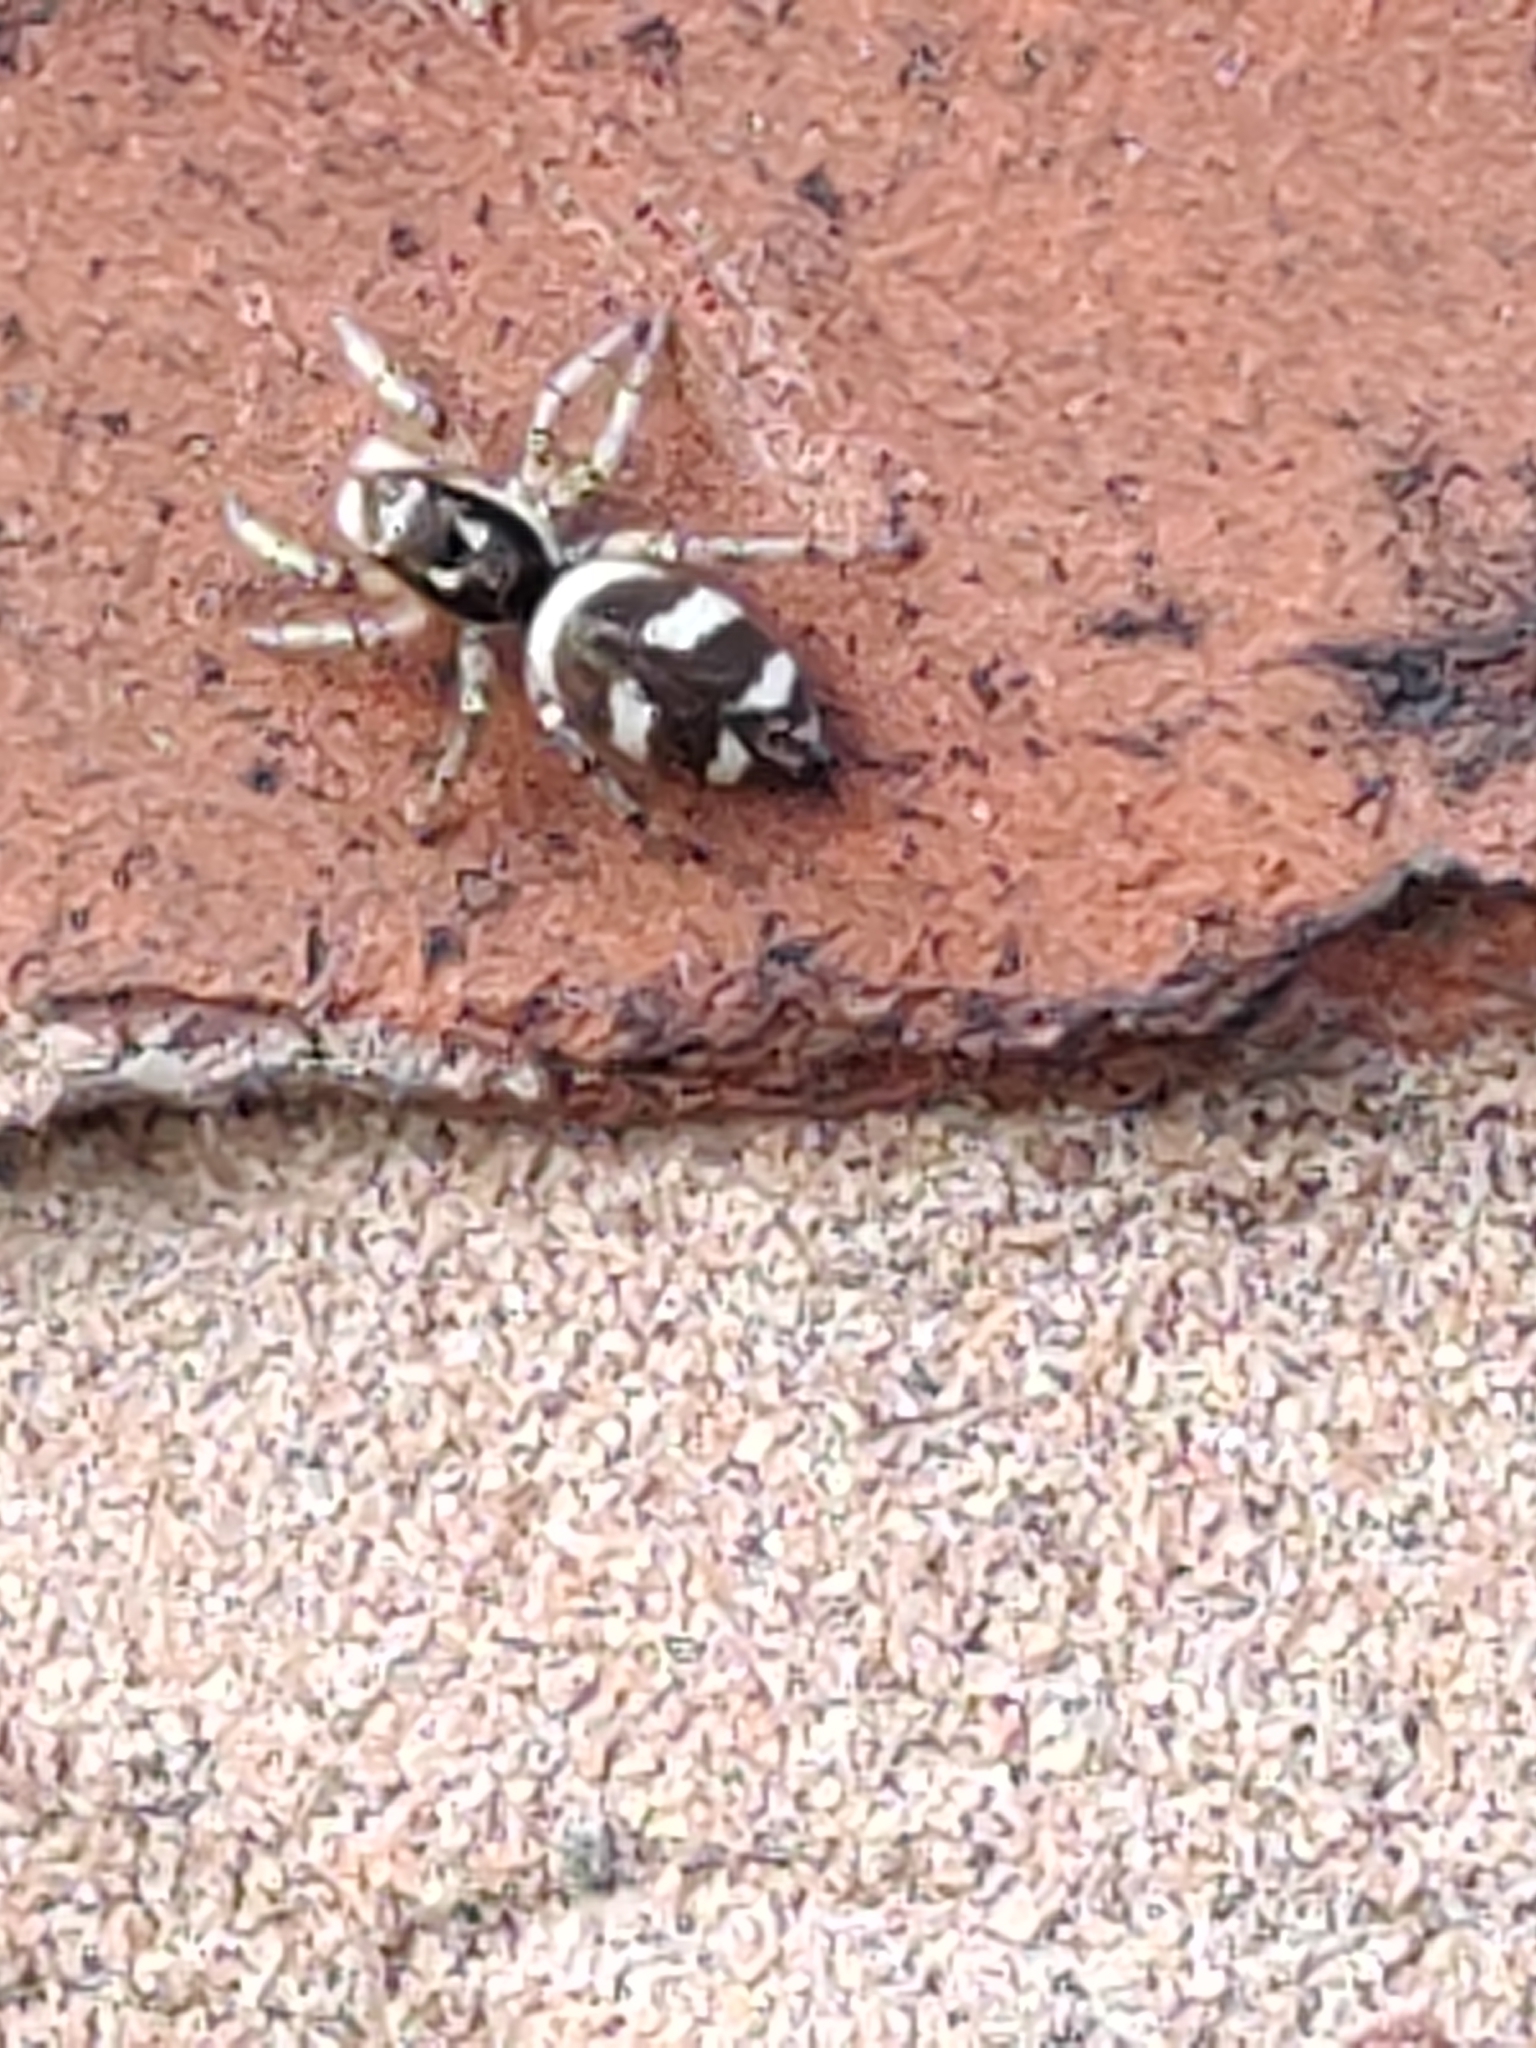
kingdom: Animalia
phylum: Arthropoda
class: Arachnida
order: Araneae
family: Salticidae
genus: Salticus
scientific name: Salticus scenicus
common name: Zebra jumper
